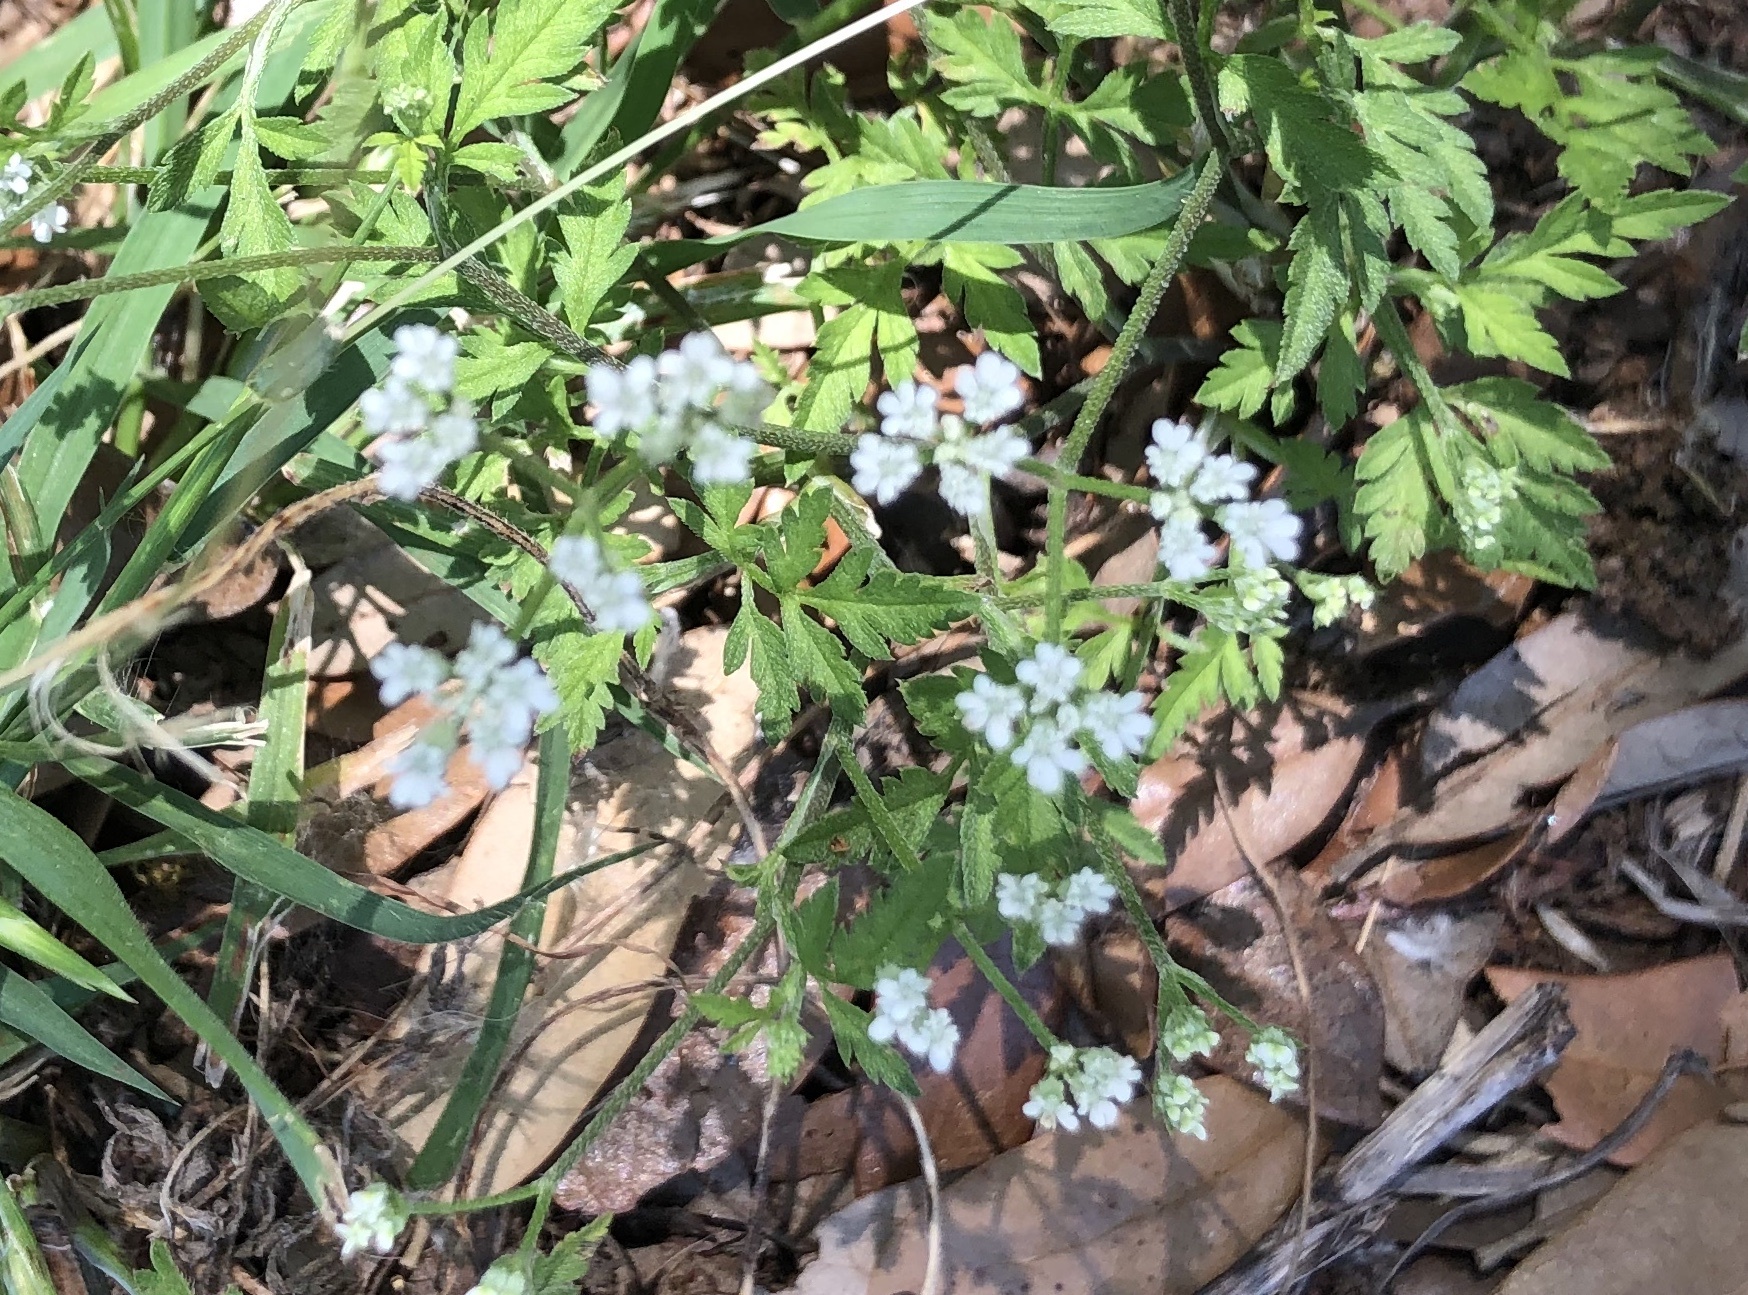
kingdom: Plantae
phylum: Tracheophyta
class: Magnoliopsida
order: Apiales
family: Apiaceae
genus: Torilis
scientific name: Torilis arvensis
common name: Spreading hedge-parsley
